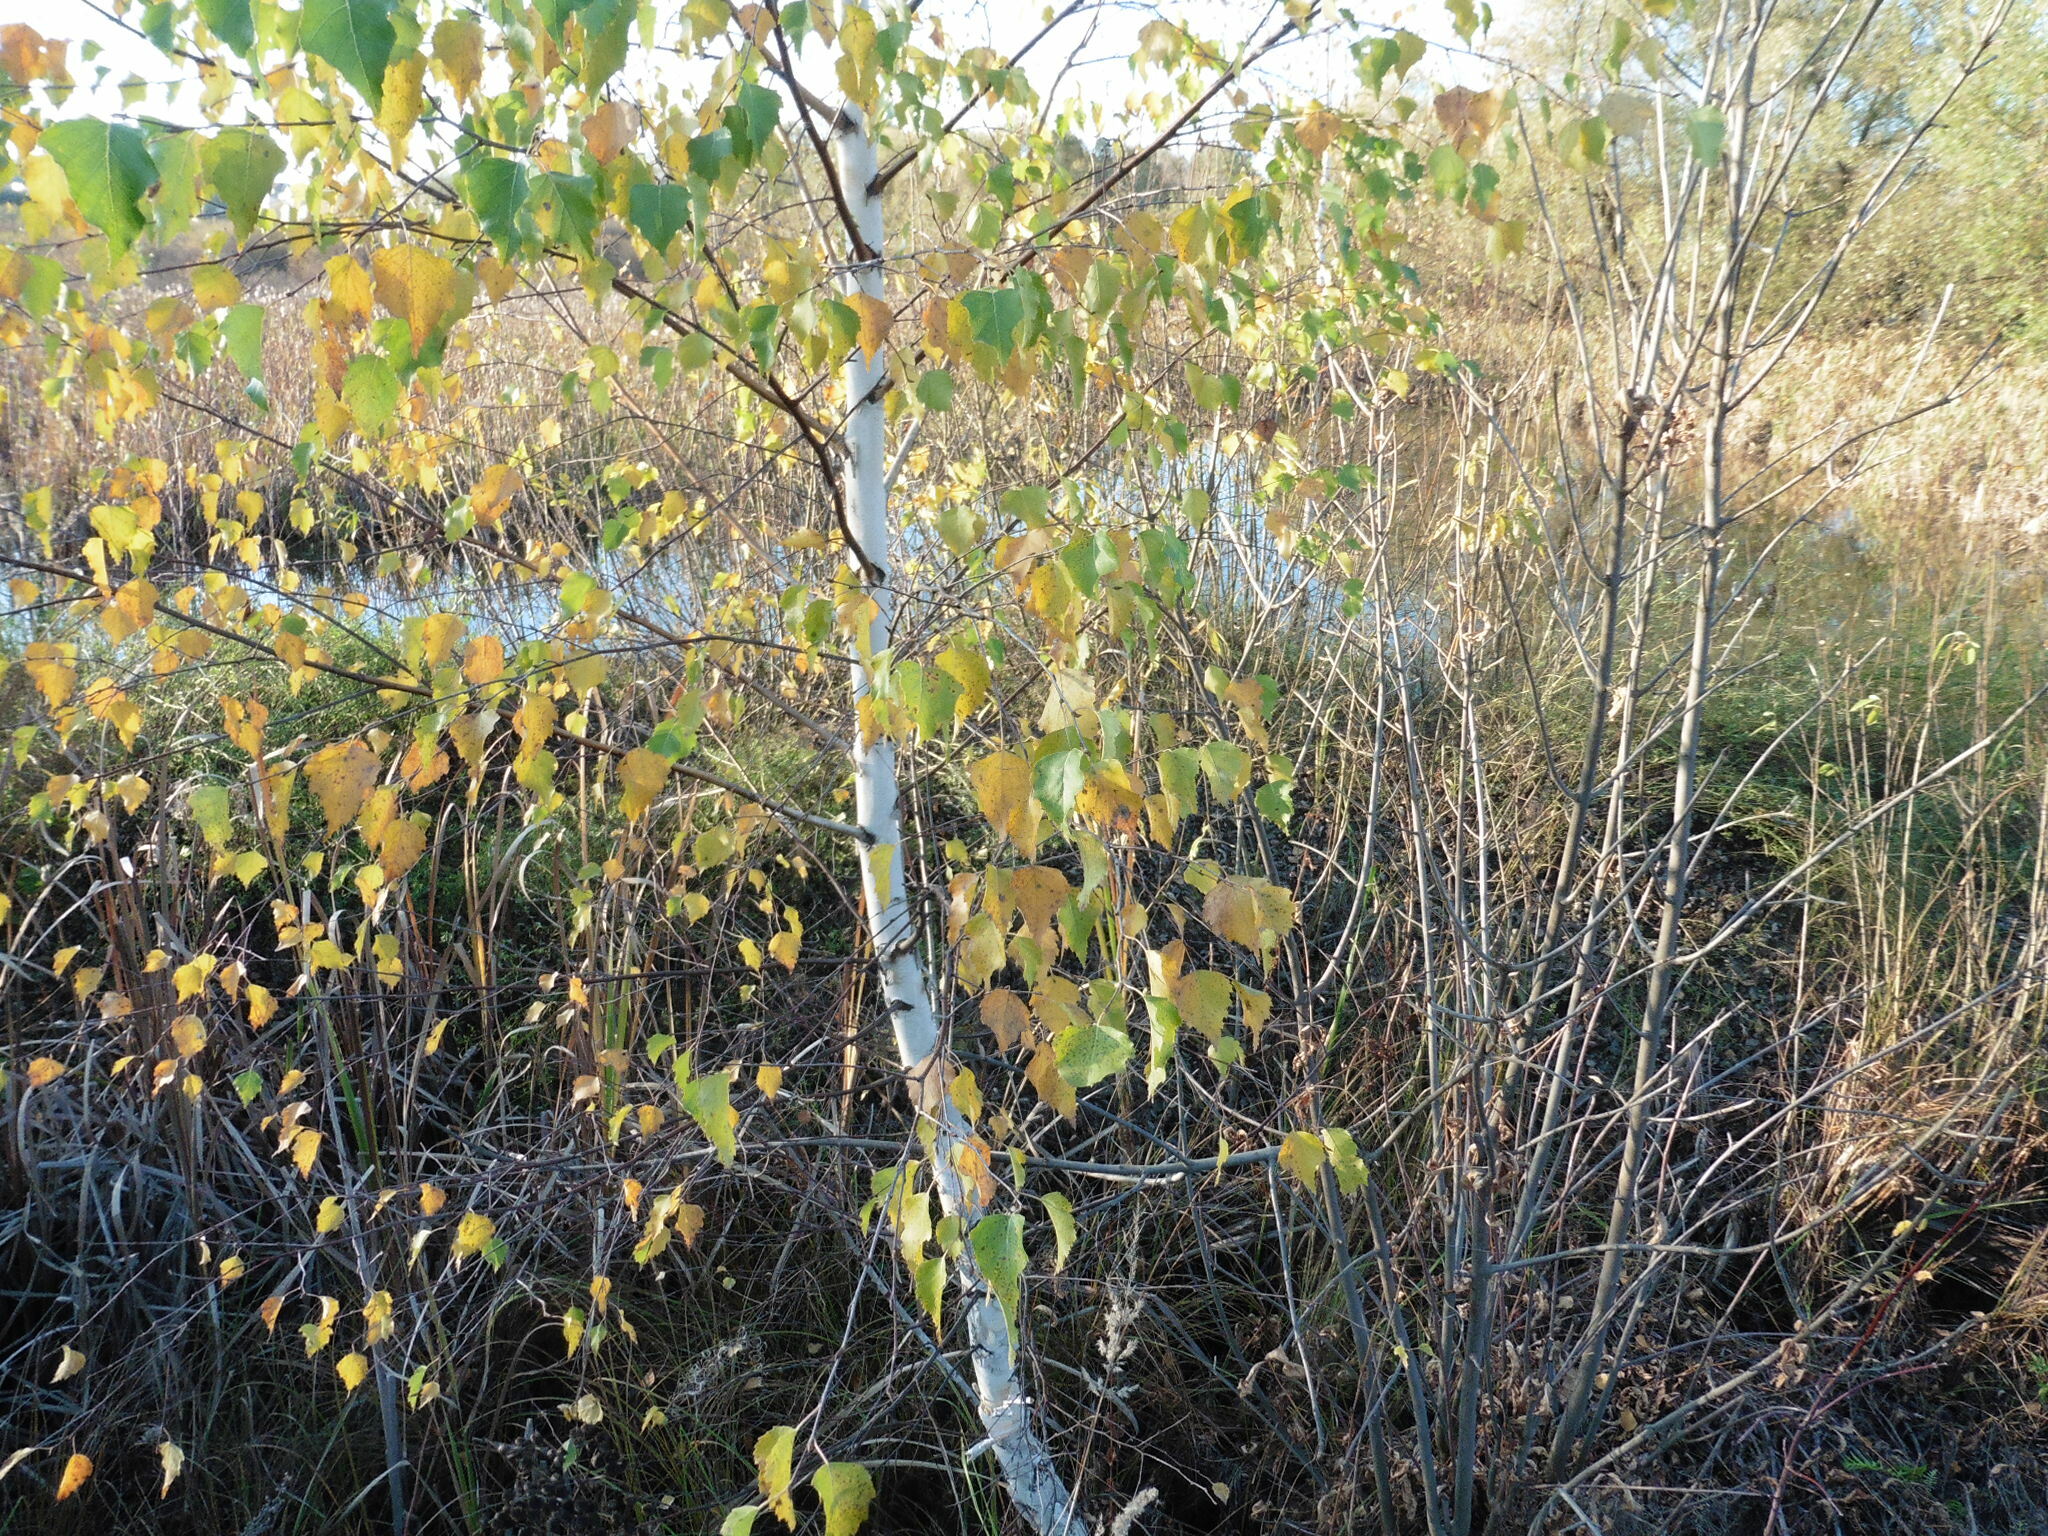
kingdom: Plantae
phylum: Tracheophyta
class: Magnoliopsida
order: Fagales
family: Betulaceae
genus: Betula
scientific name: Betula pendula
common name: Silver birch
